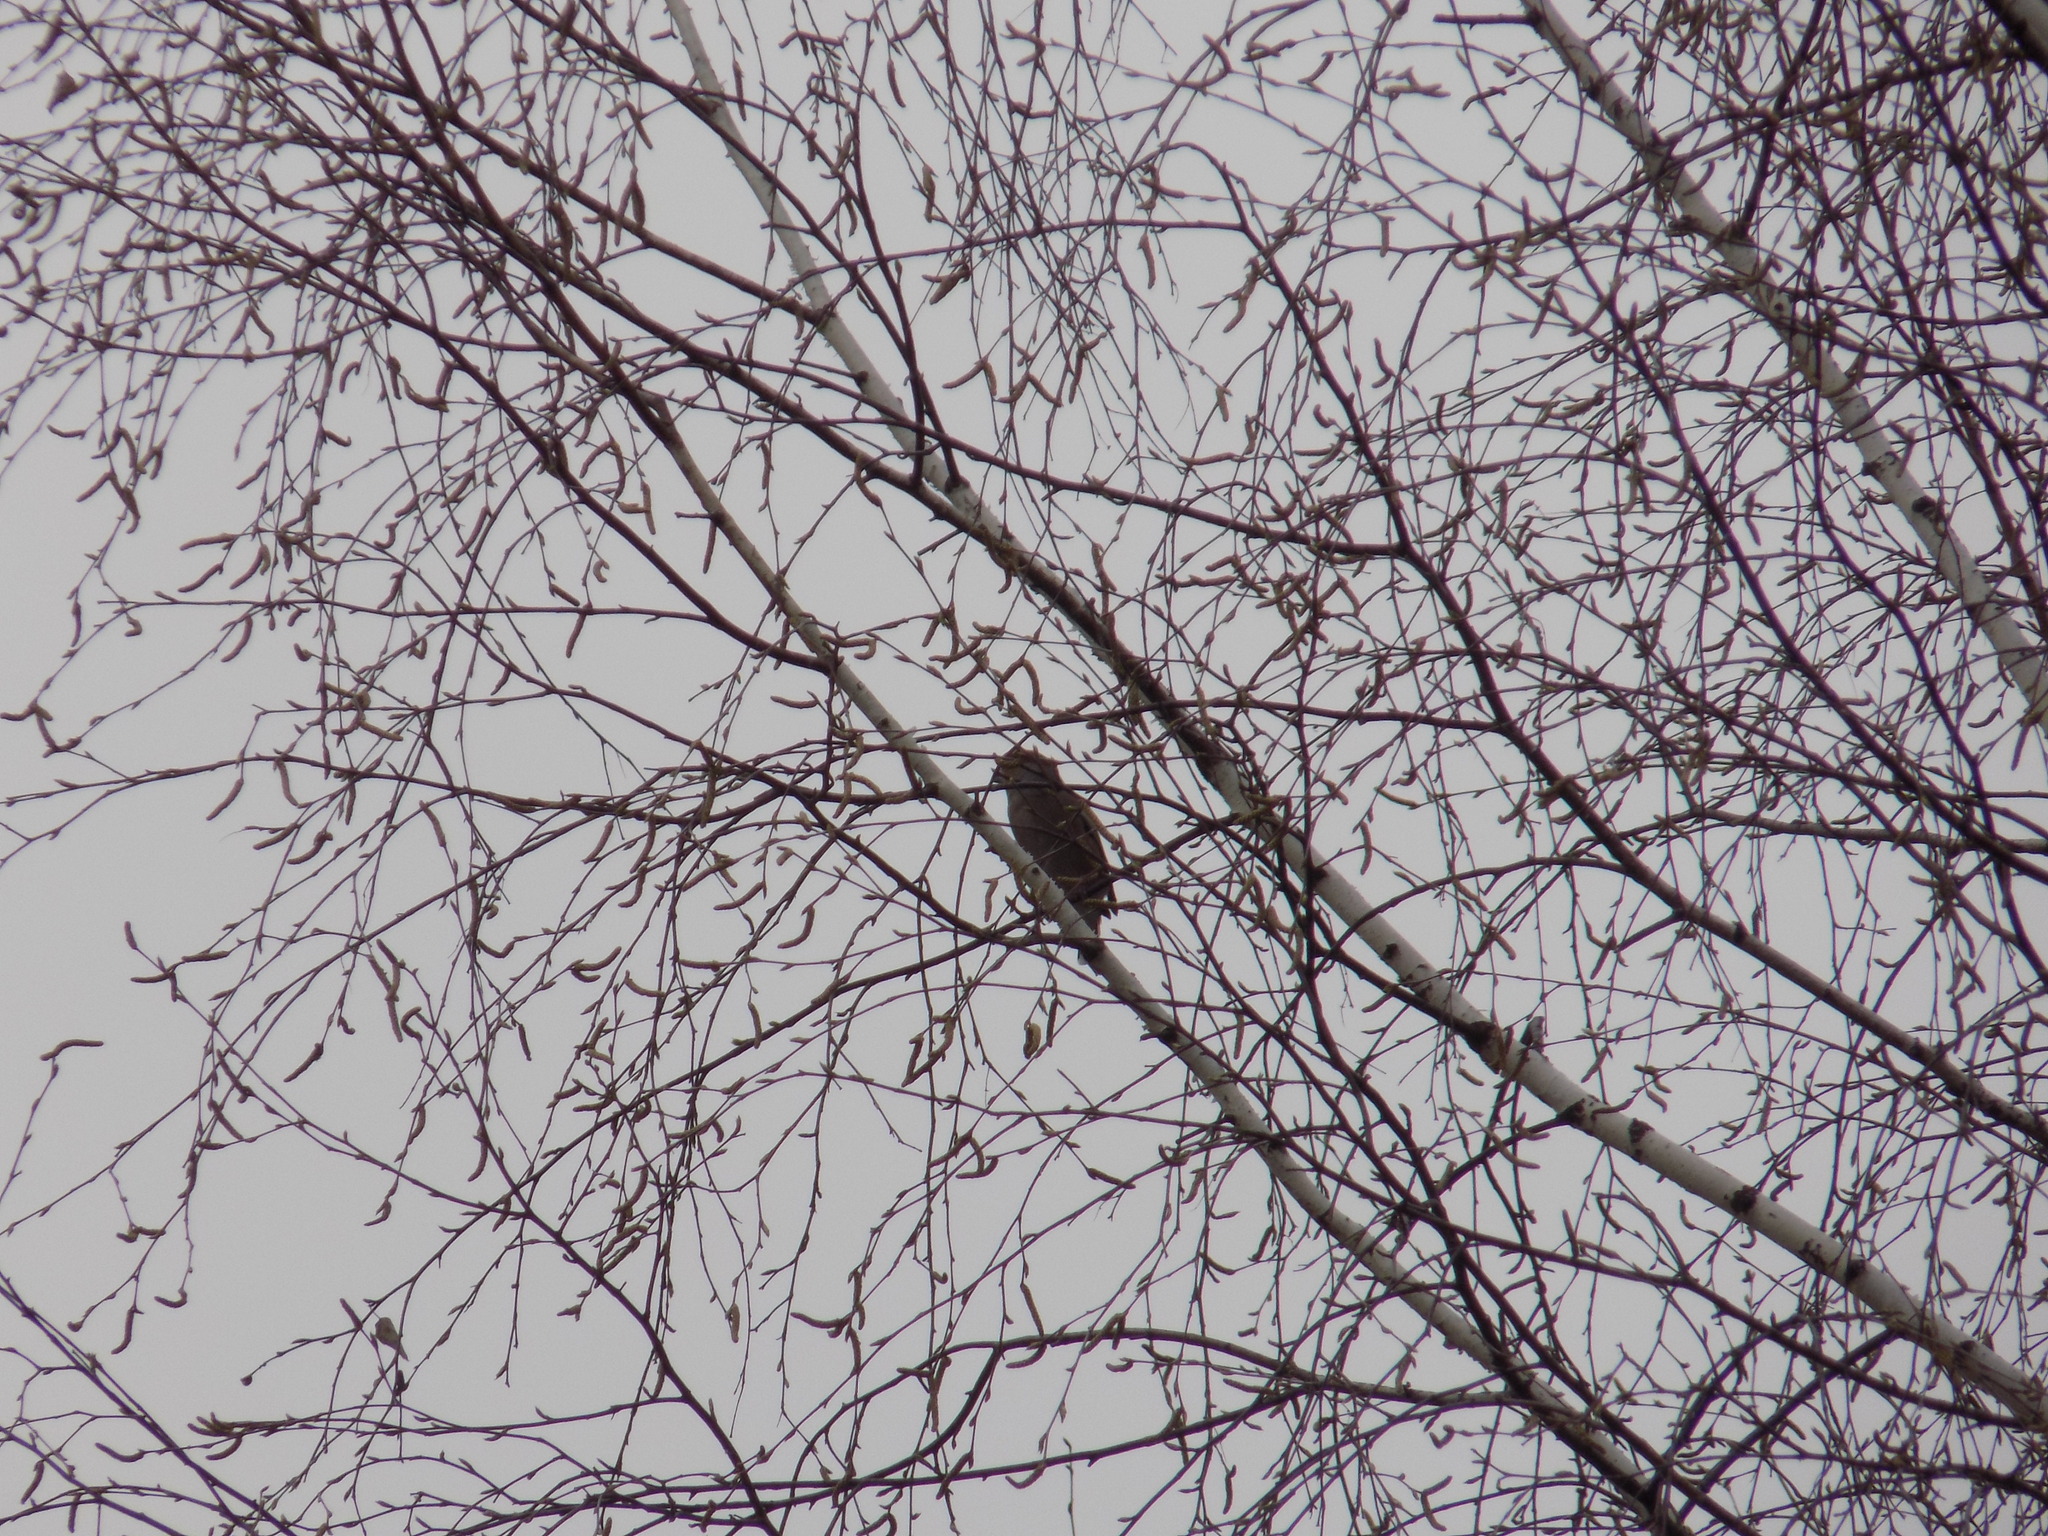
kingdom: Animalia
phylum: Chordata
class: Aves
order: Passeriformes
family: Fringillidae
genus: Coccothraustes
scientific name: Coccothraustes coccothraustes
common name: Hawfinch
